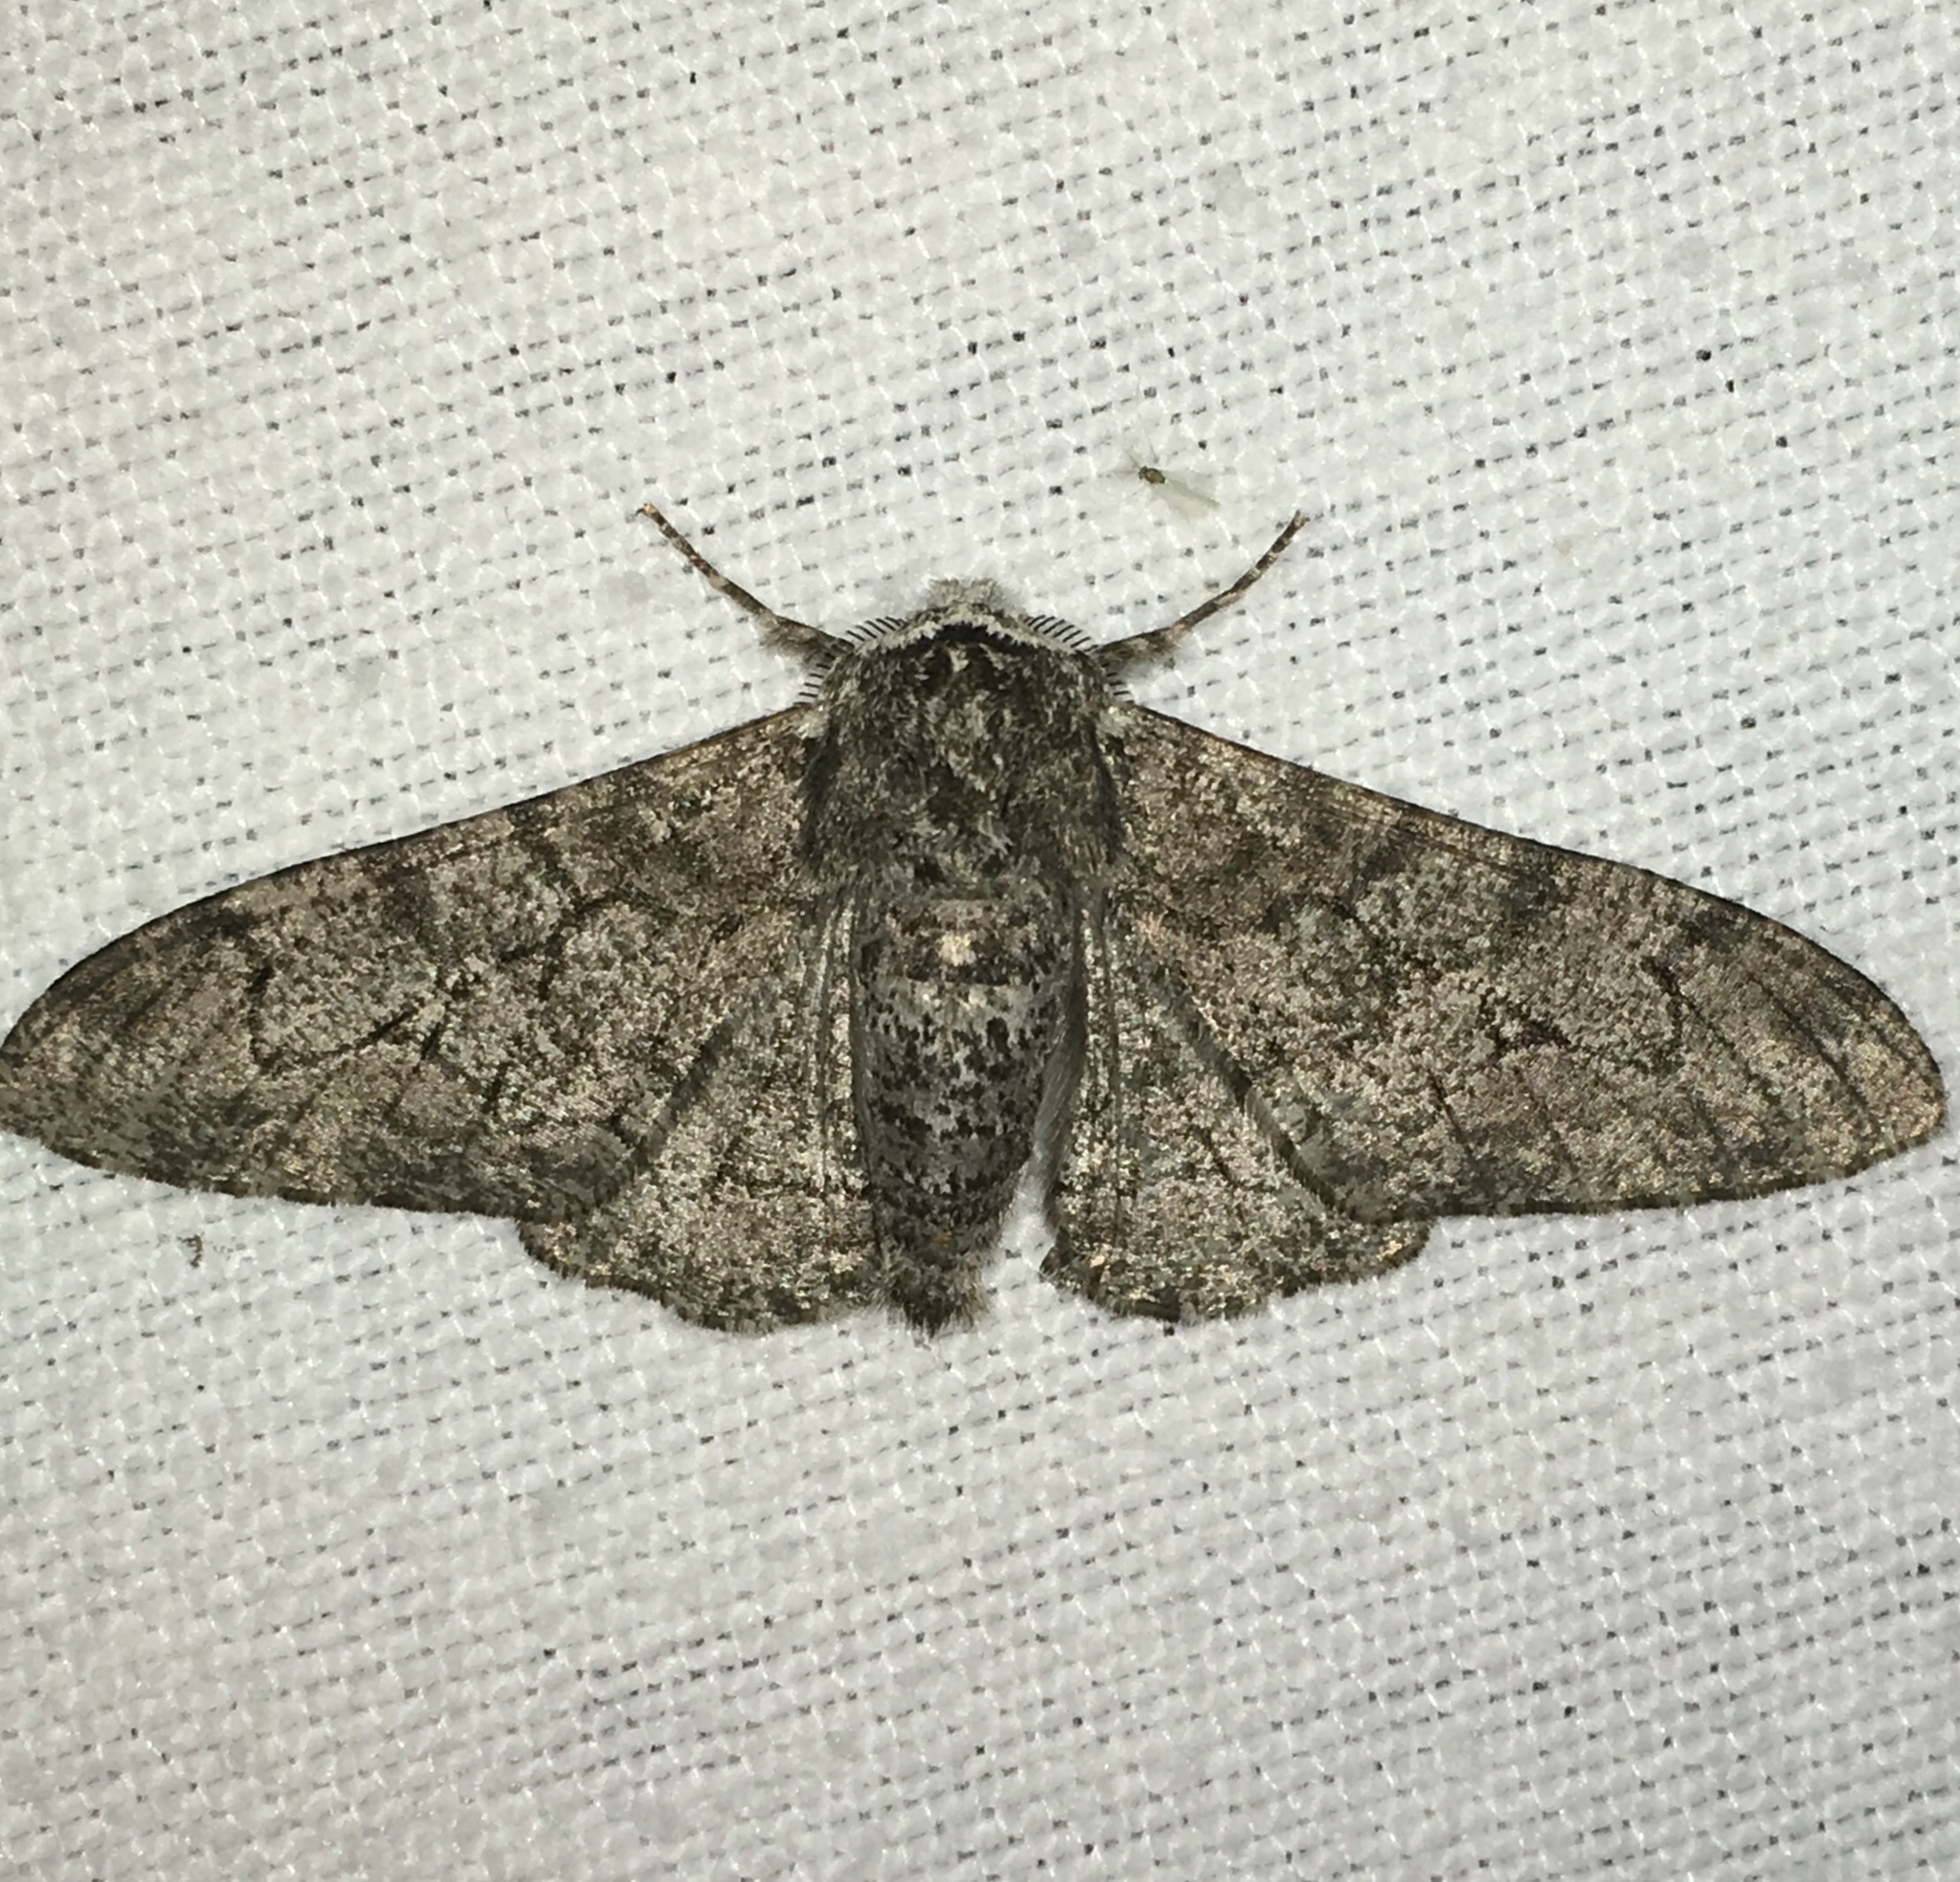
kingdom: Animalia
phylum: Arthropoda
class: Insecta
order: Lepidoptera
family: Geometridae
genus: Biston
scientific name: Biston betularia
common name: Peppered moth
